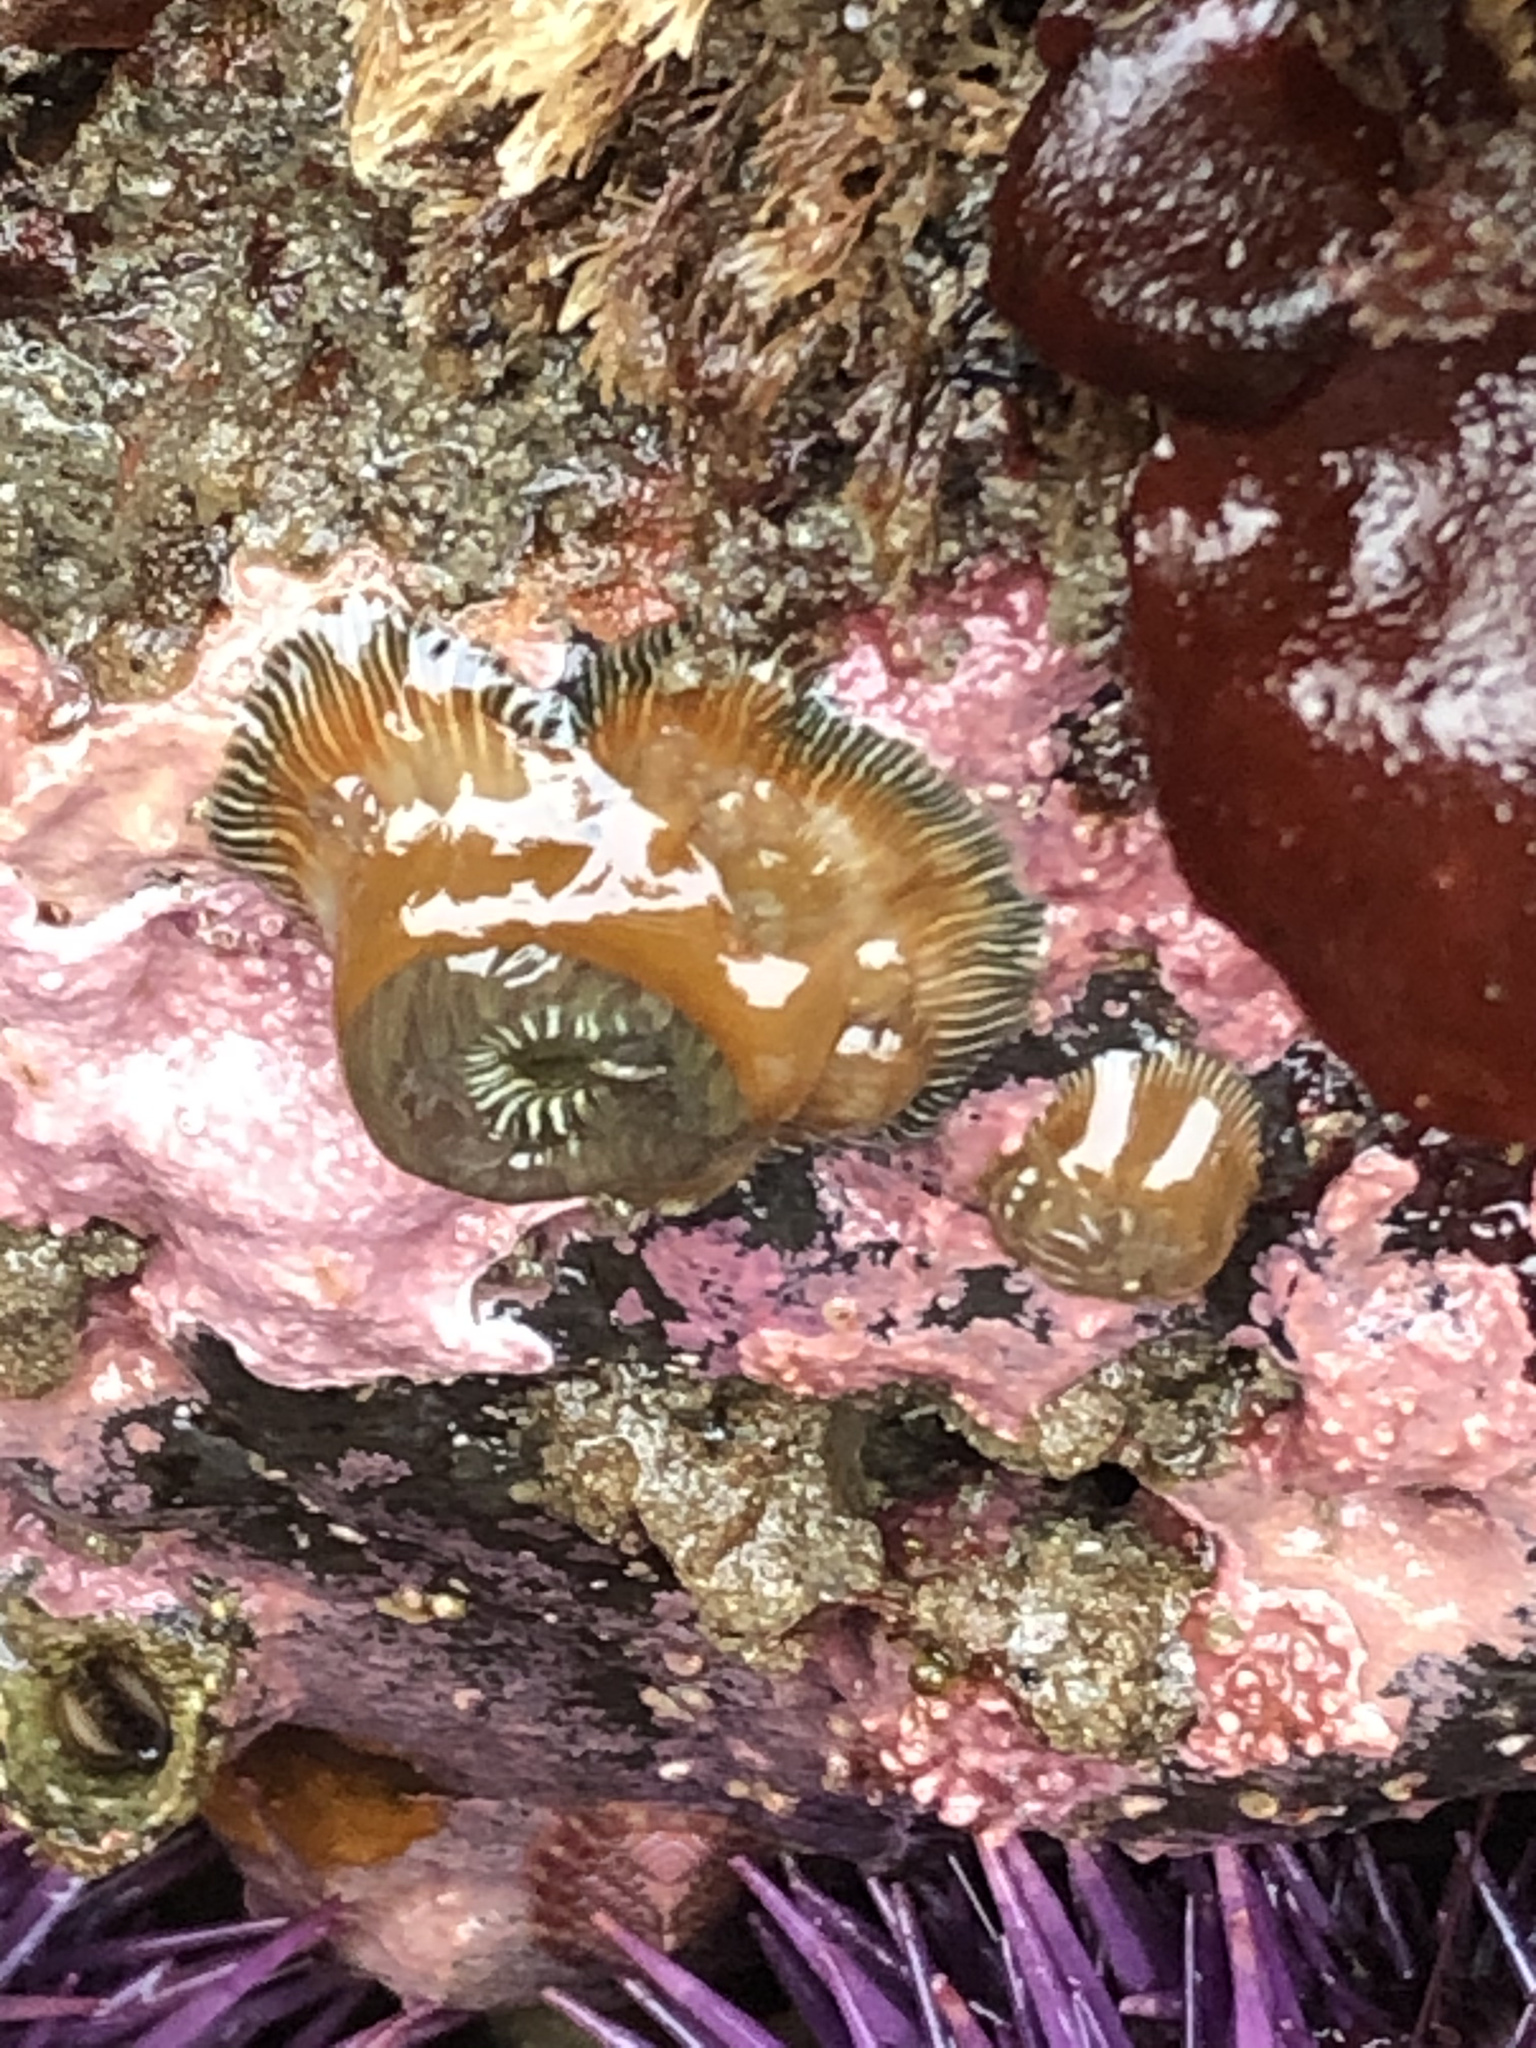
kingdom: Animalia
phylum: Cnidaria
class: Anthozoa
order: Actiniaria
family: Actiniidae
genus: Epiactis
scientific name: Epiactis prolifera
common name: Brooding anemone
